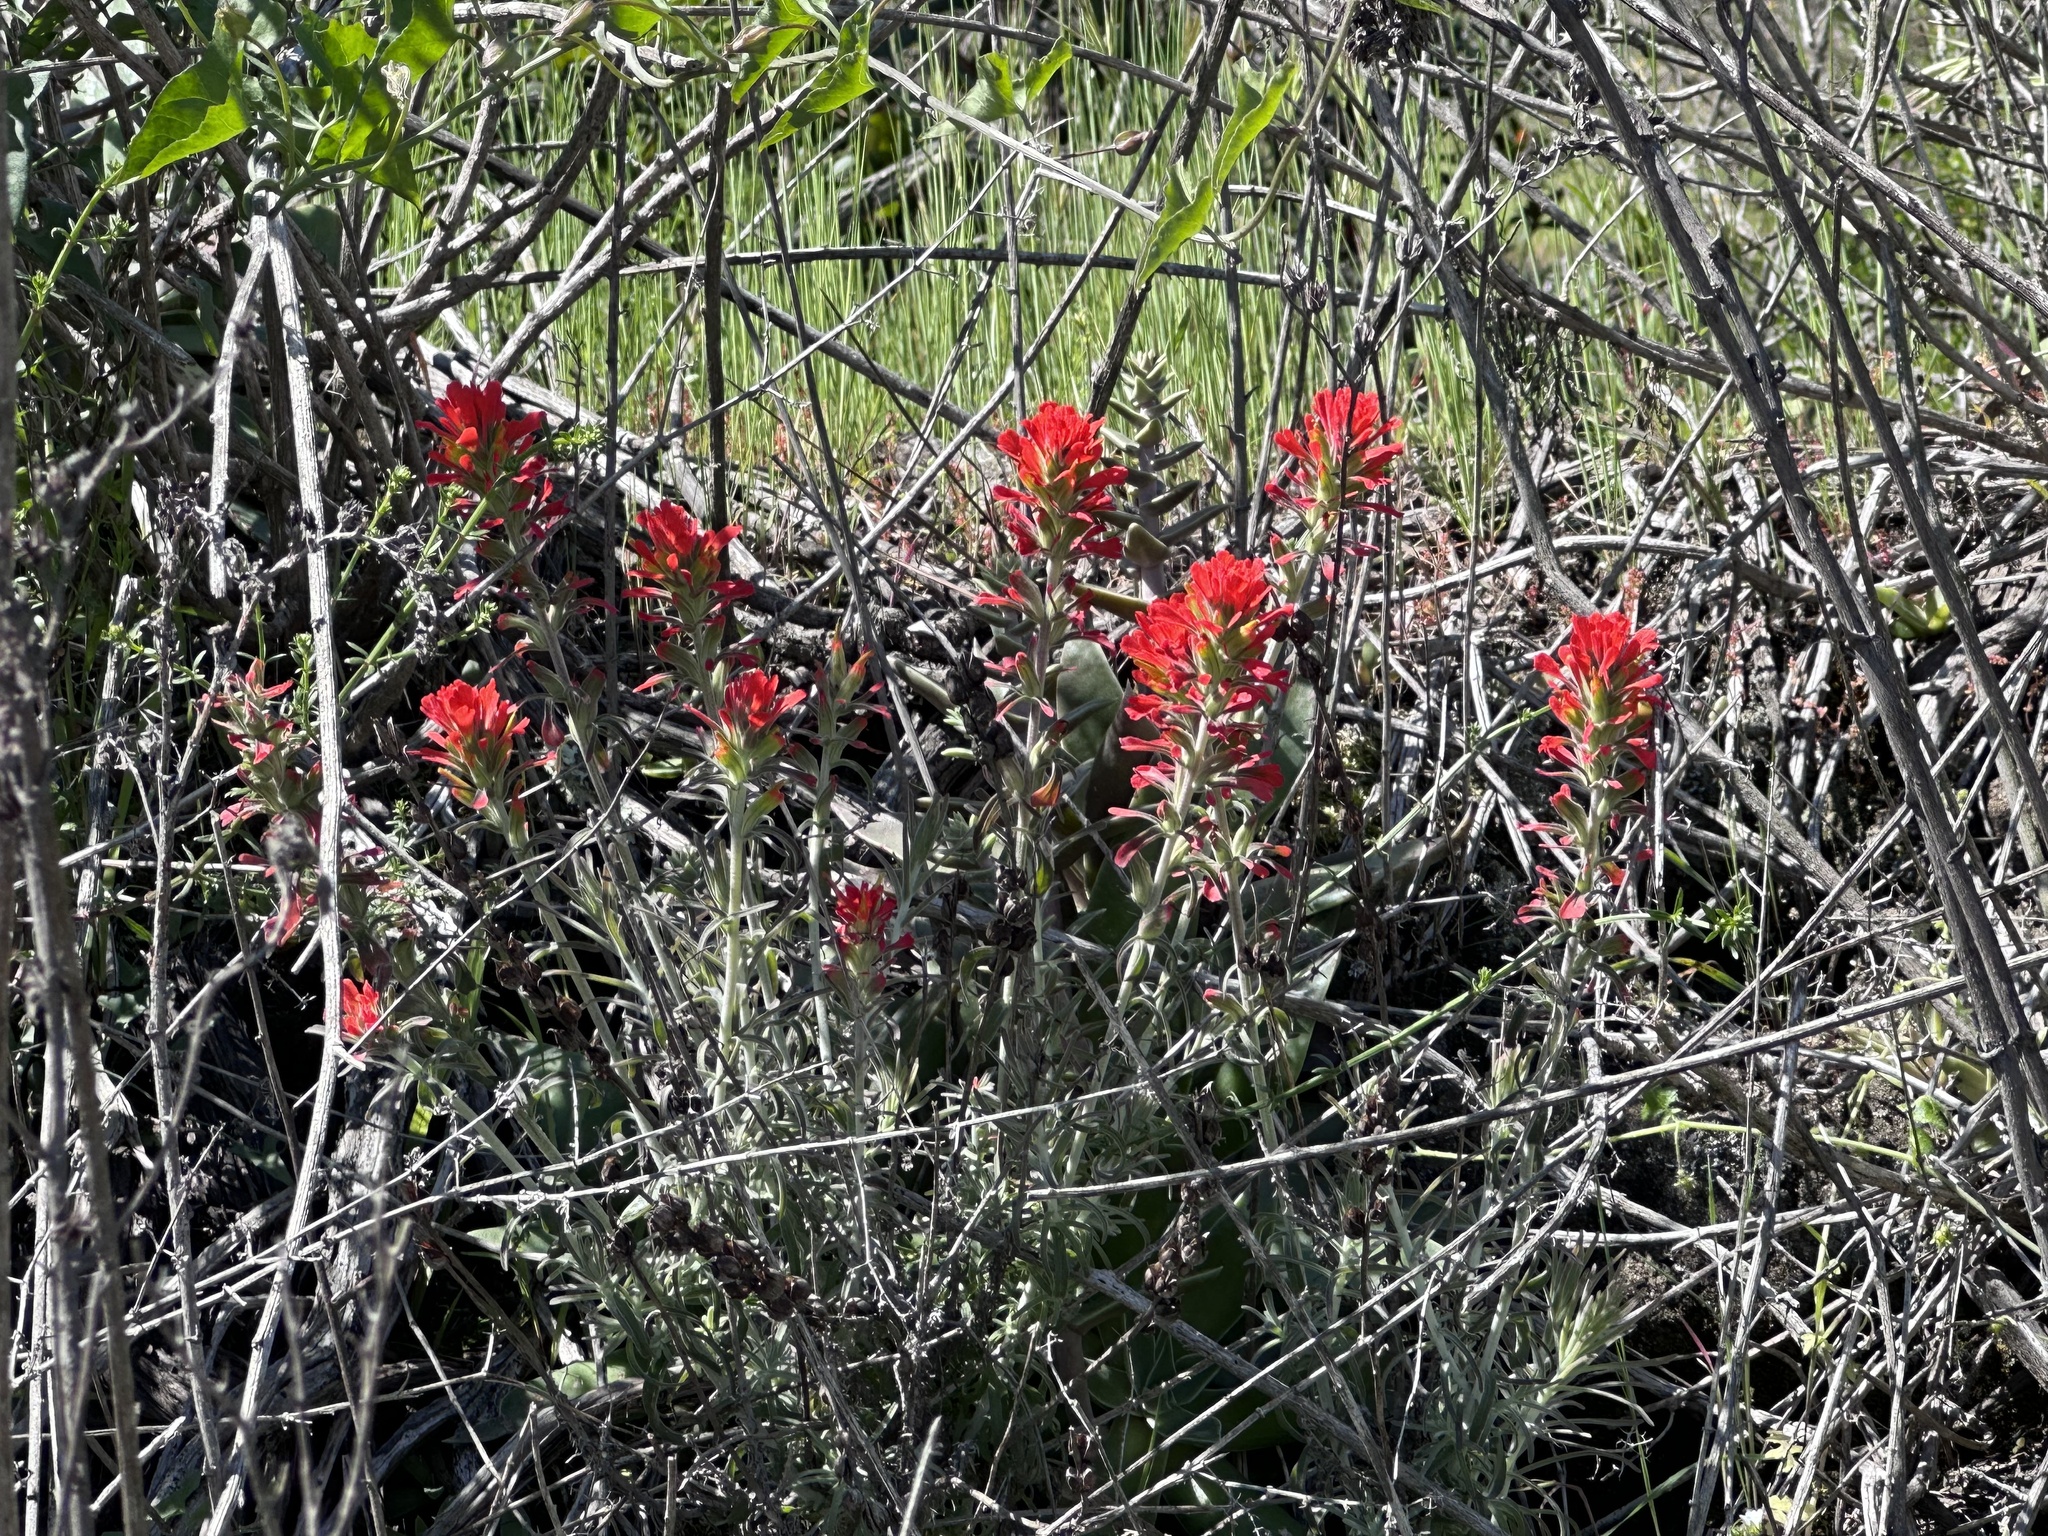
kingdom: Plantae
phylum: Tracheophyta
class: Magnoliopsida
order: Lamiales
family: Orobanchaceae
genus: Castilleja
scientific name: Castilleja foliolosa
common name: Woolly indian paintbrush
